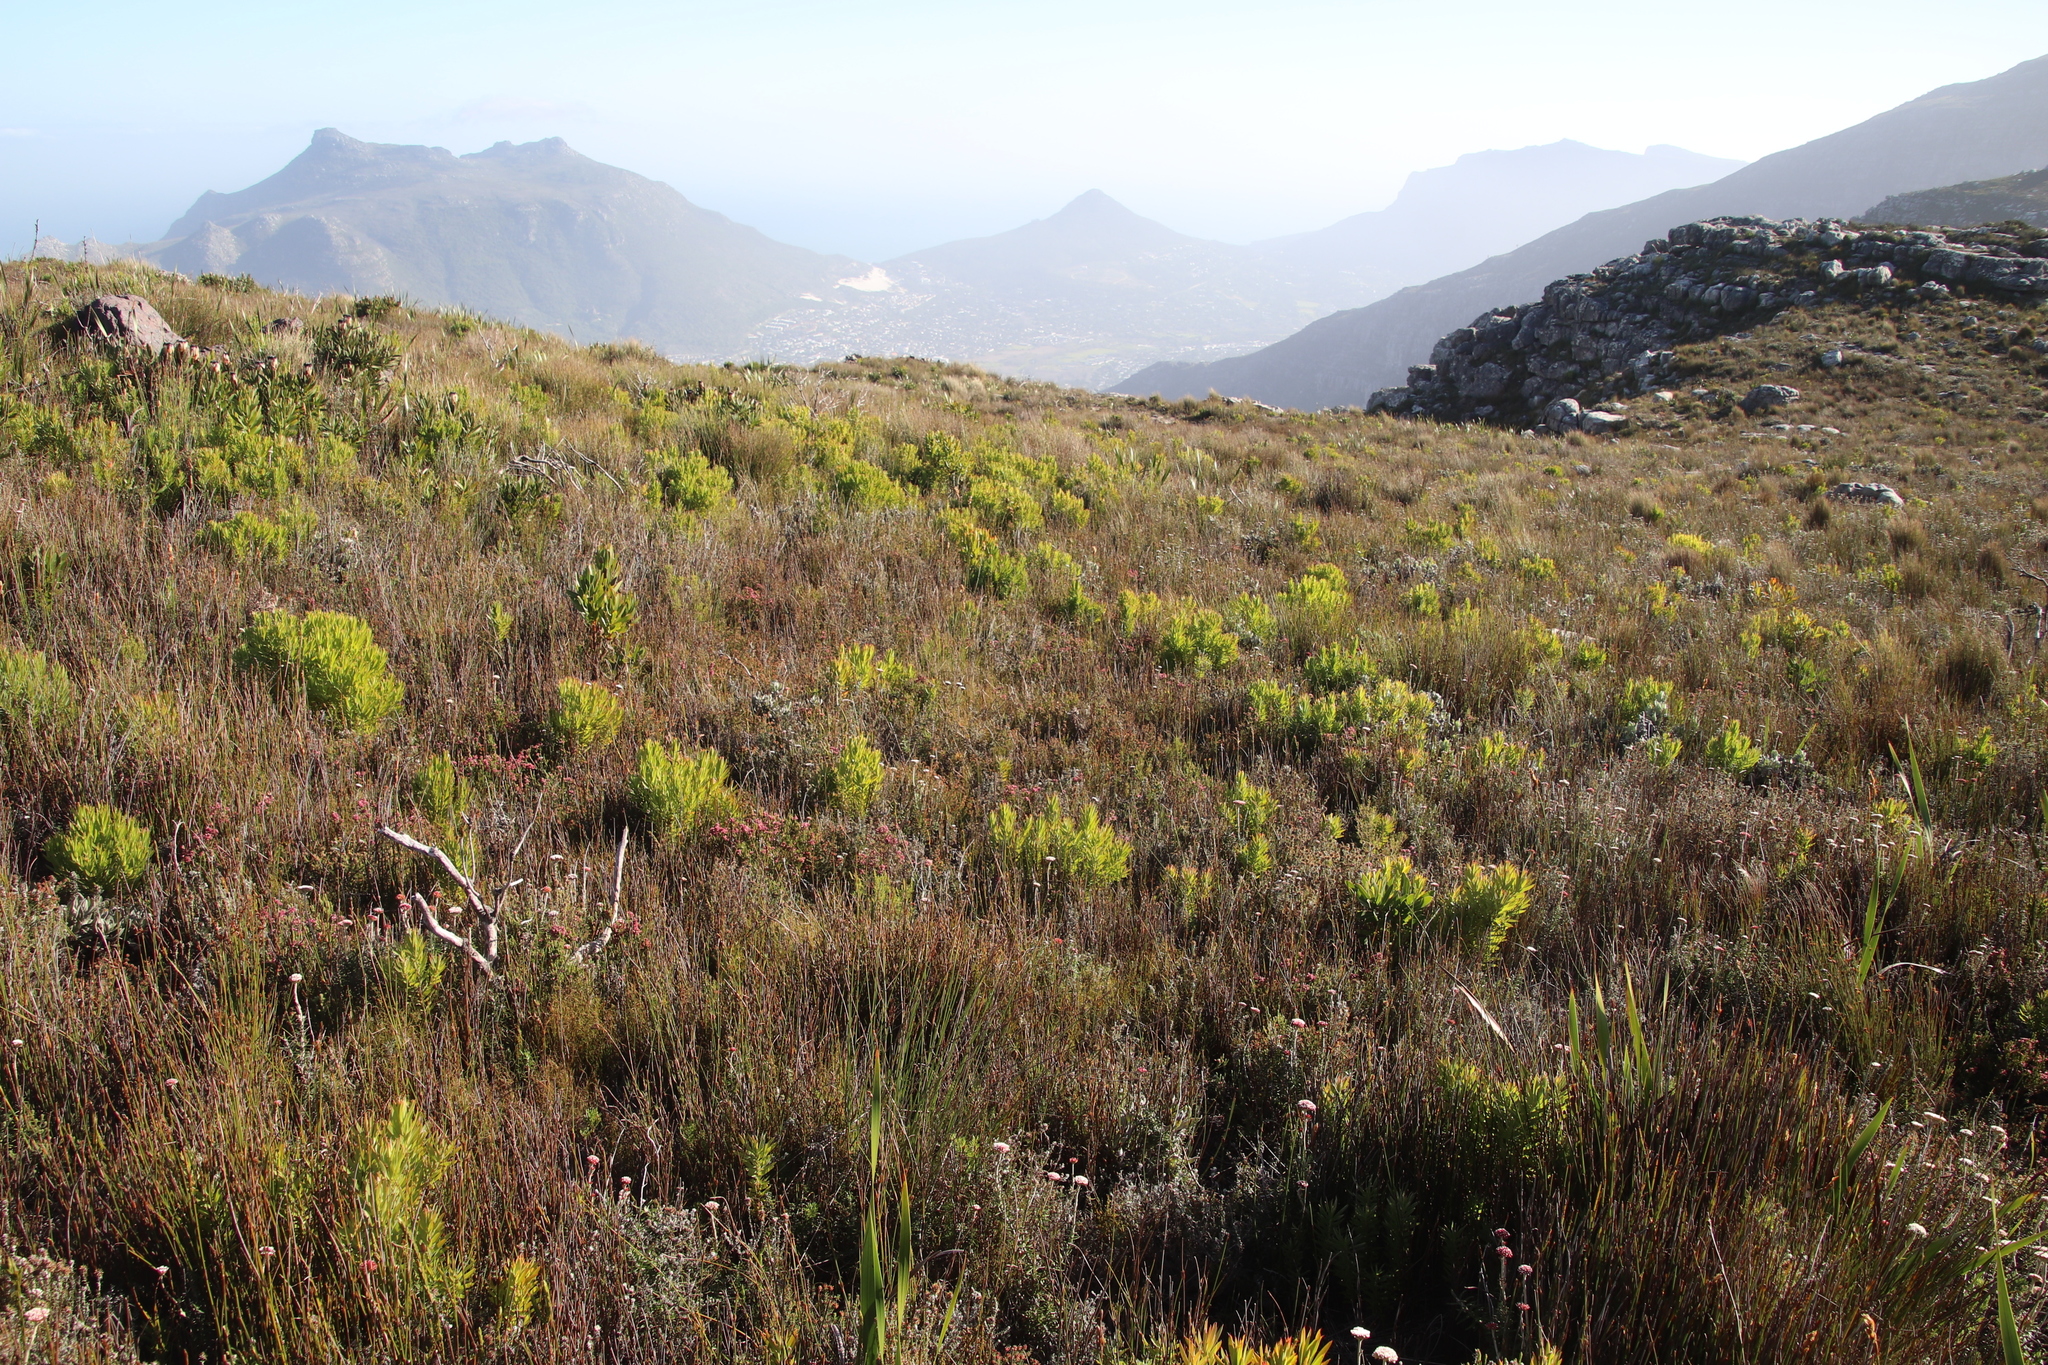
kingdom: Plantae
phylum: Tracheophyta
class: Magnoliopsida
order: Proteales
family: Proteaceae
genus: Leucadendron
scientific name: Leucadendron xanthoconus
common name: Sickle-leaf conebush
